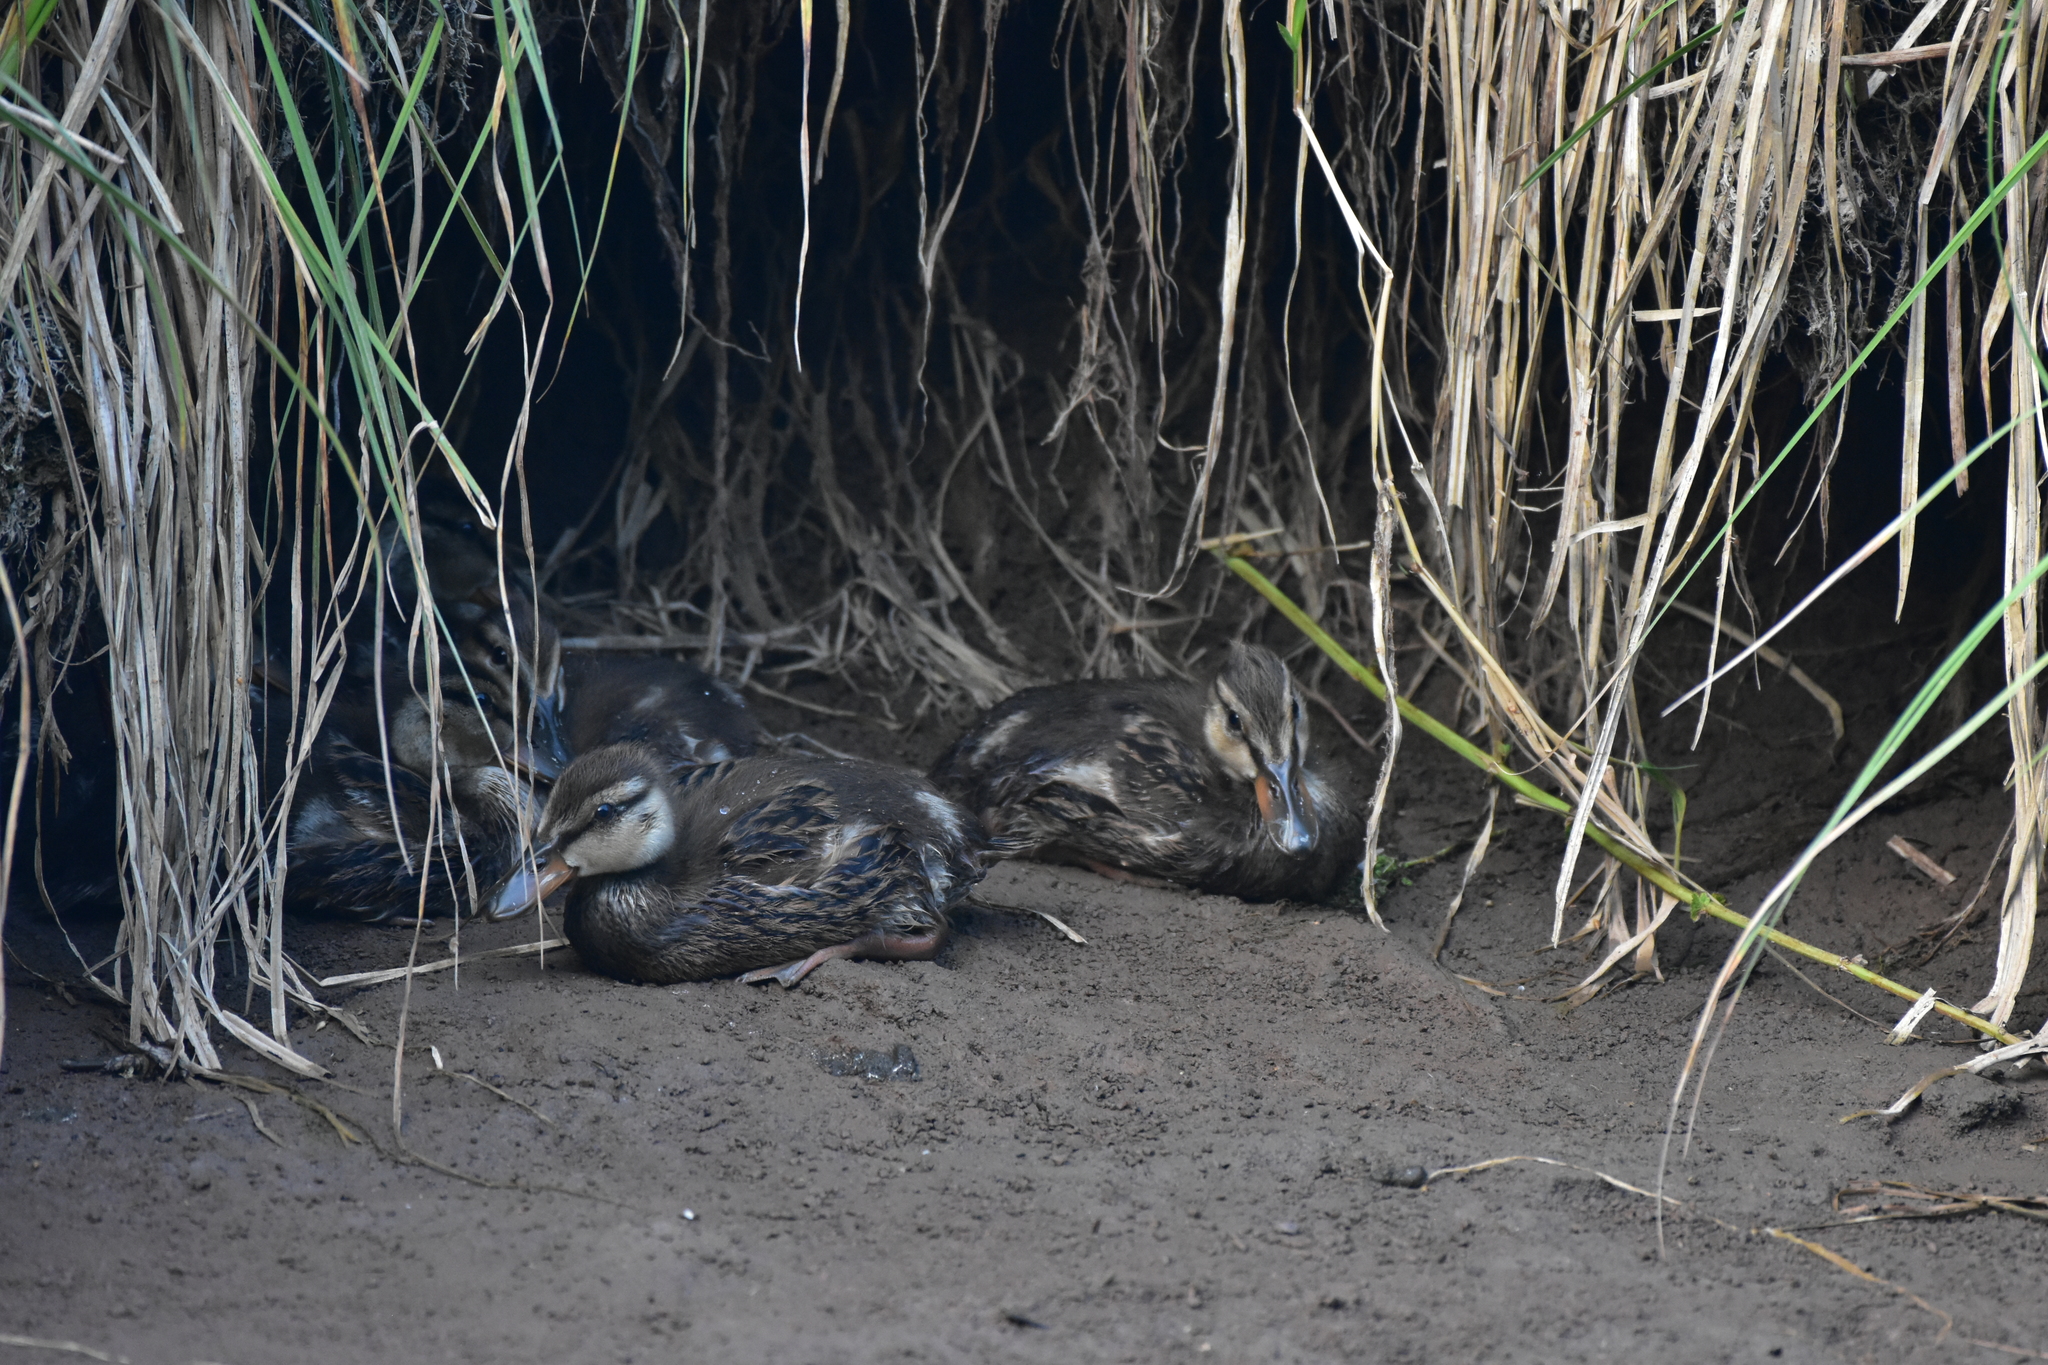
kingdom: Animalia
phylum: Chordata
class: Aves
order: Anseriformes
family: Anatidae
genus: Anas
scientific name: Anas platyrhynchos
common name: Mallard
